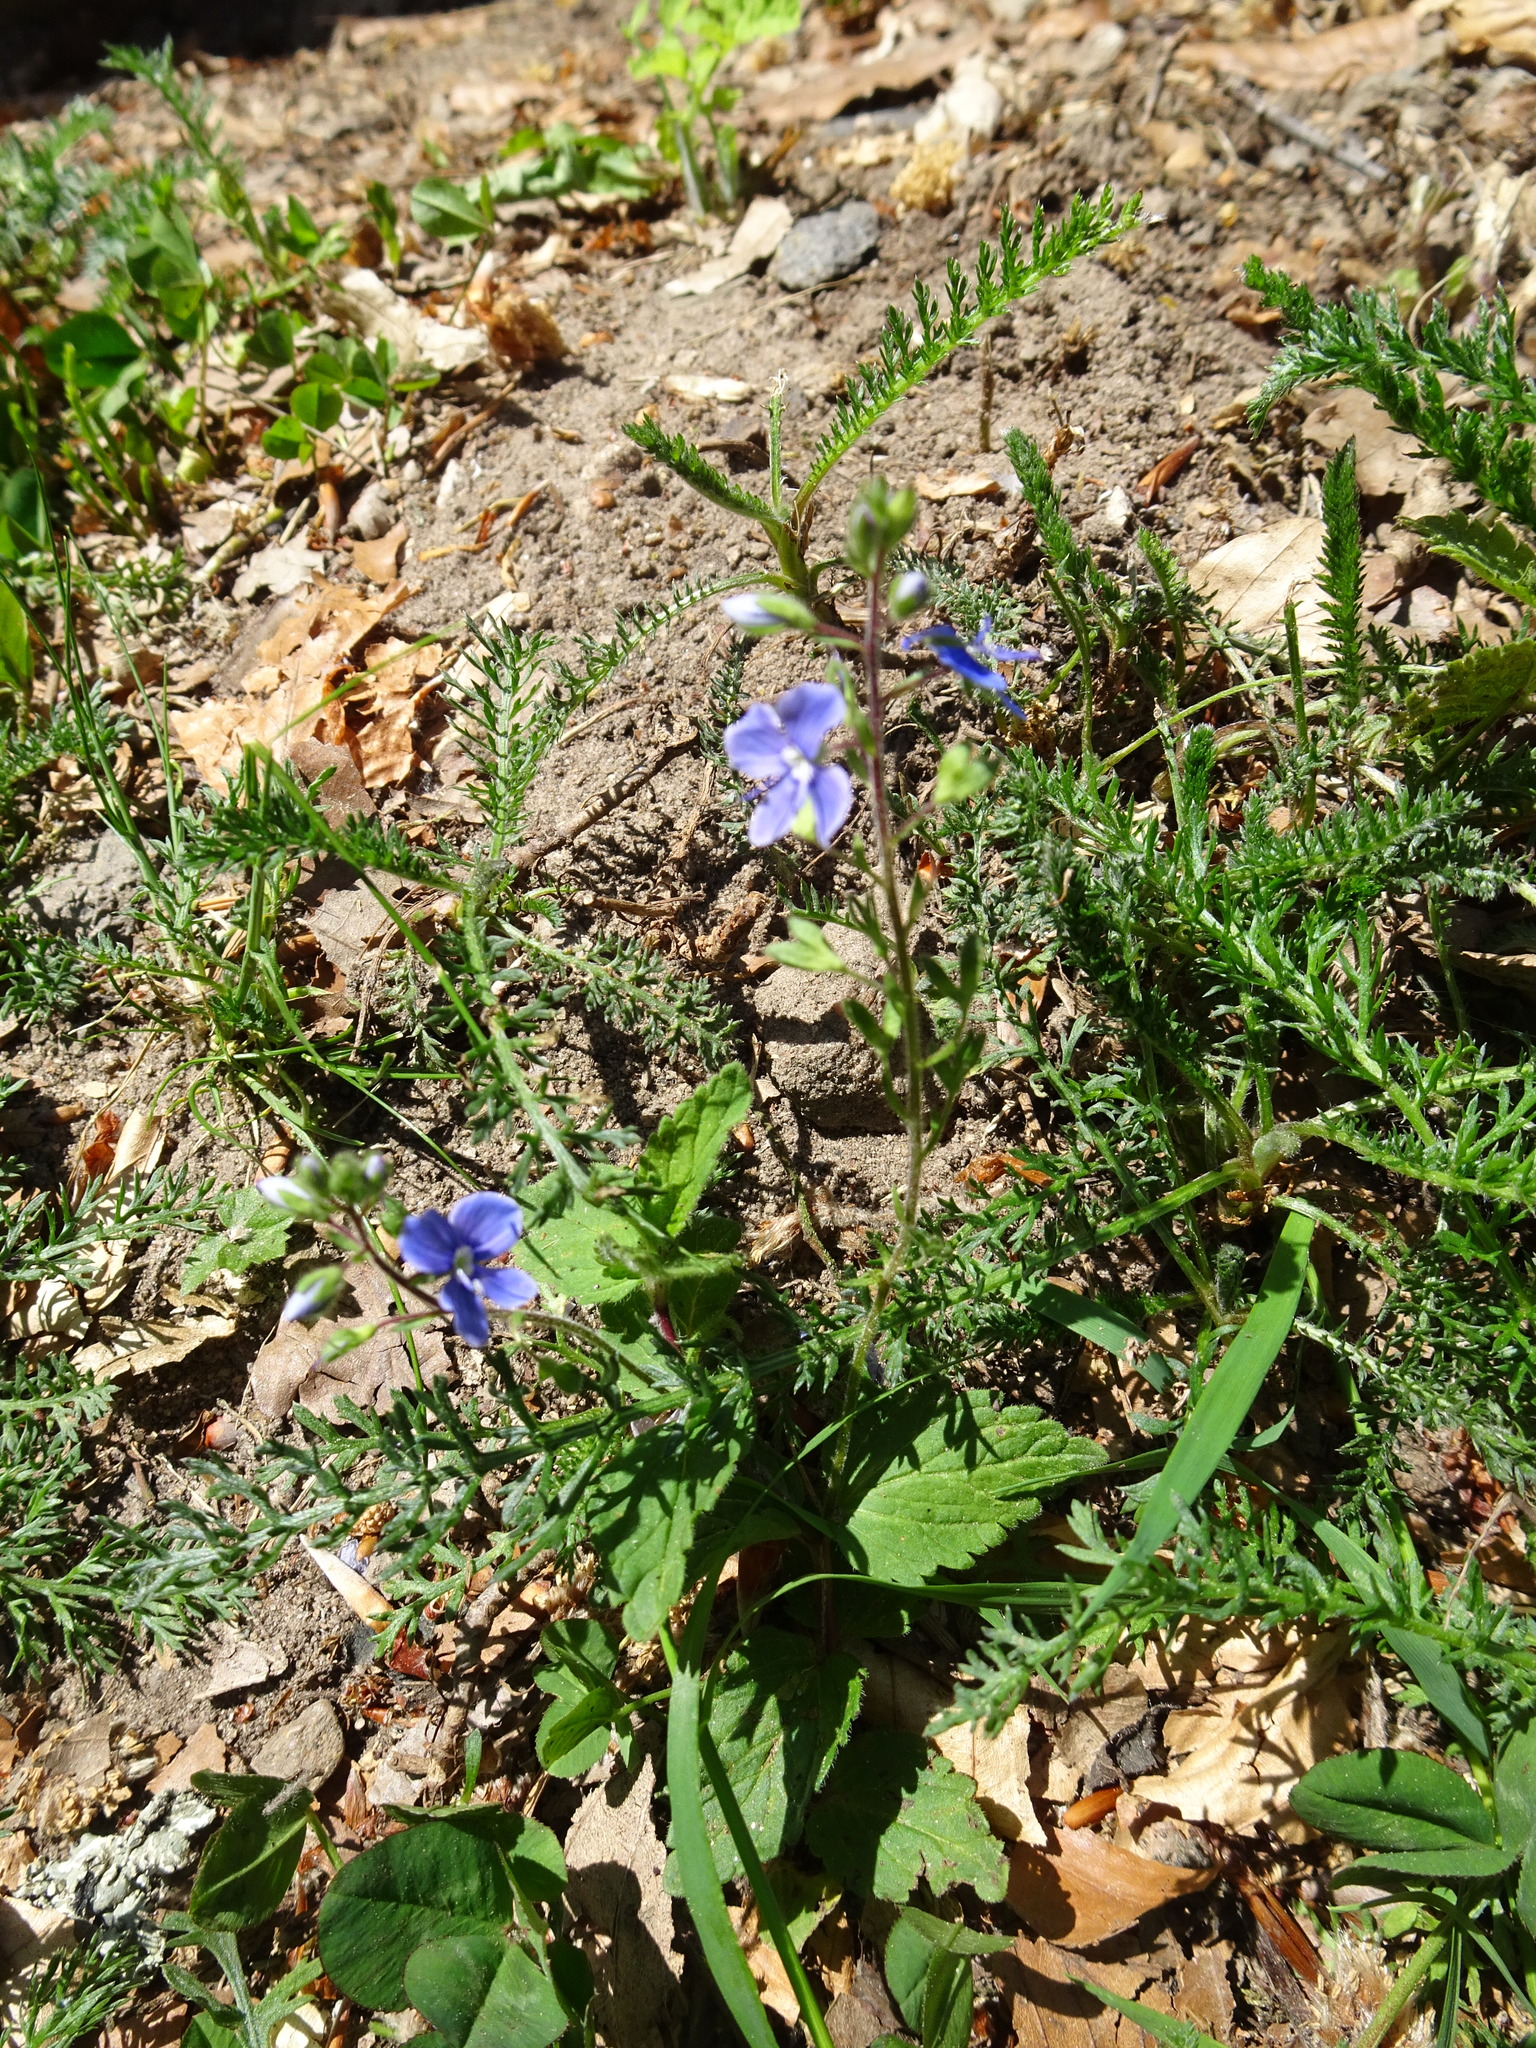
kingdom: Plantae
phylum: Tracheophyta
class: Magnoliopsida
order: Lamiales
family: Plantaginaceae
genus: Veronica
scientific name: Veronica chamaedrys
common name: Germander speedwell
